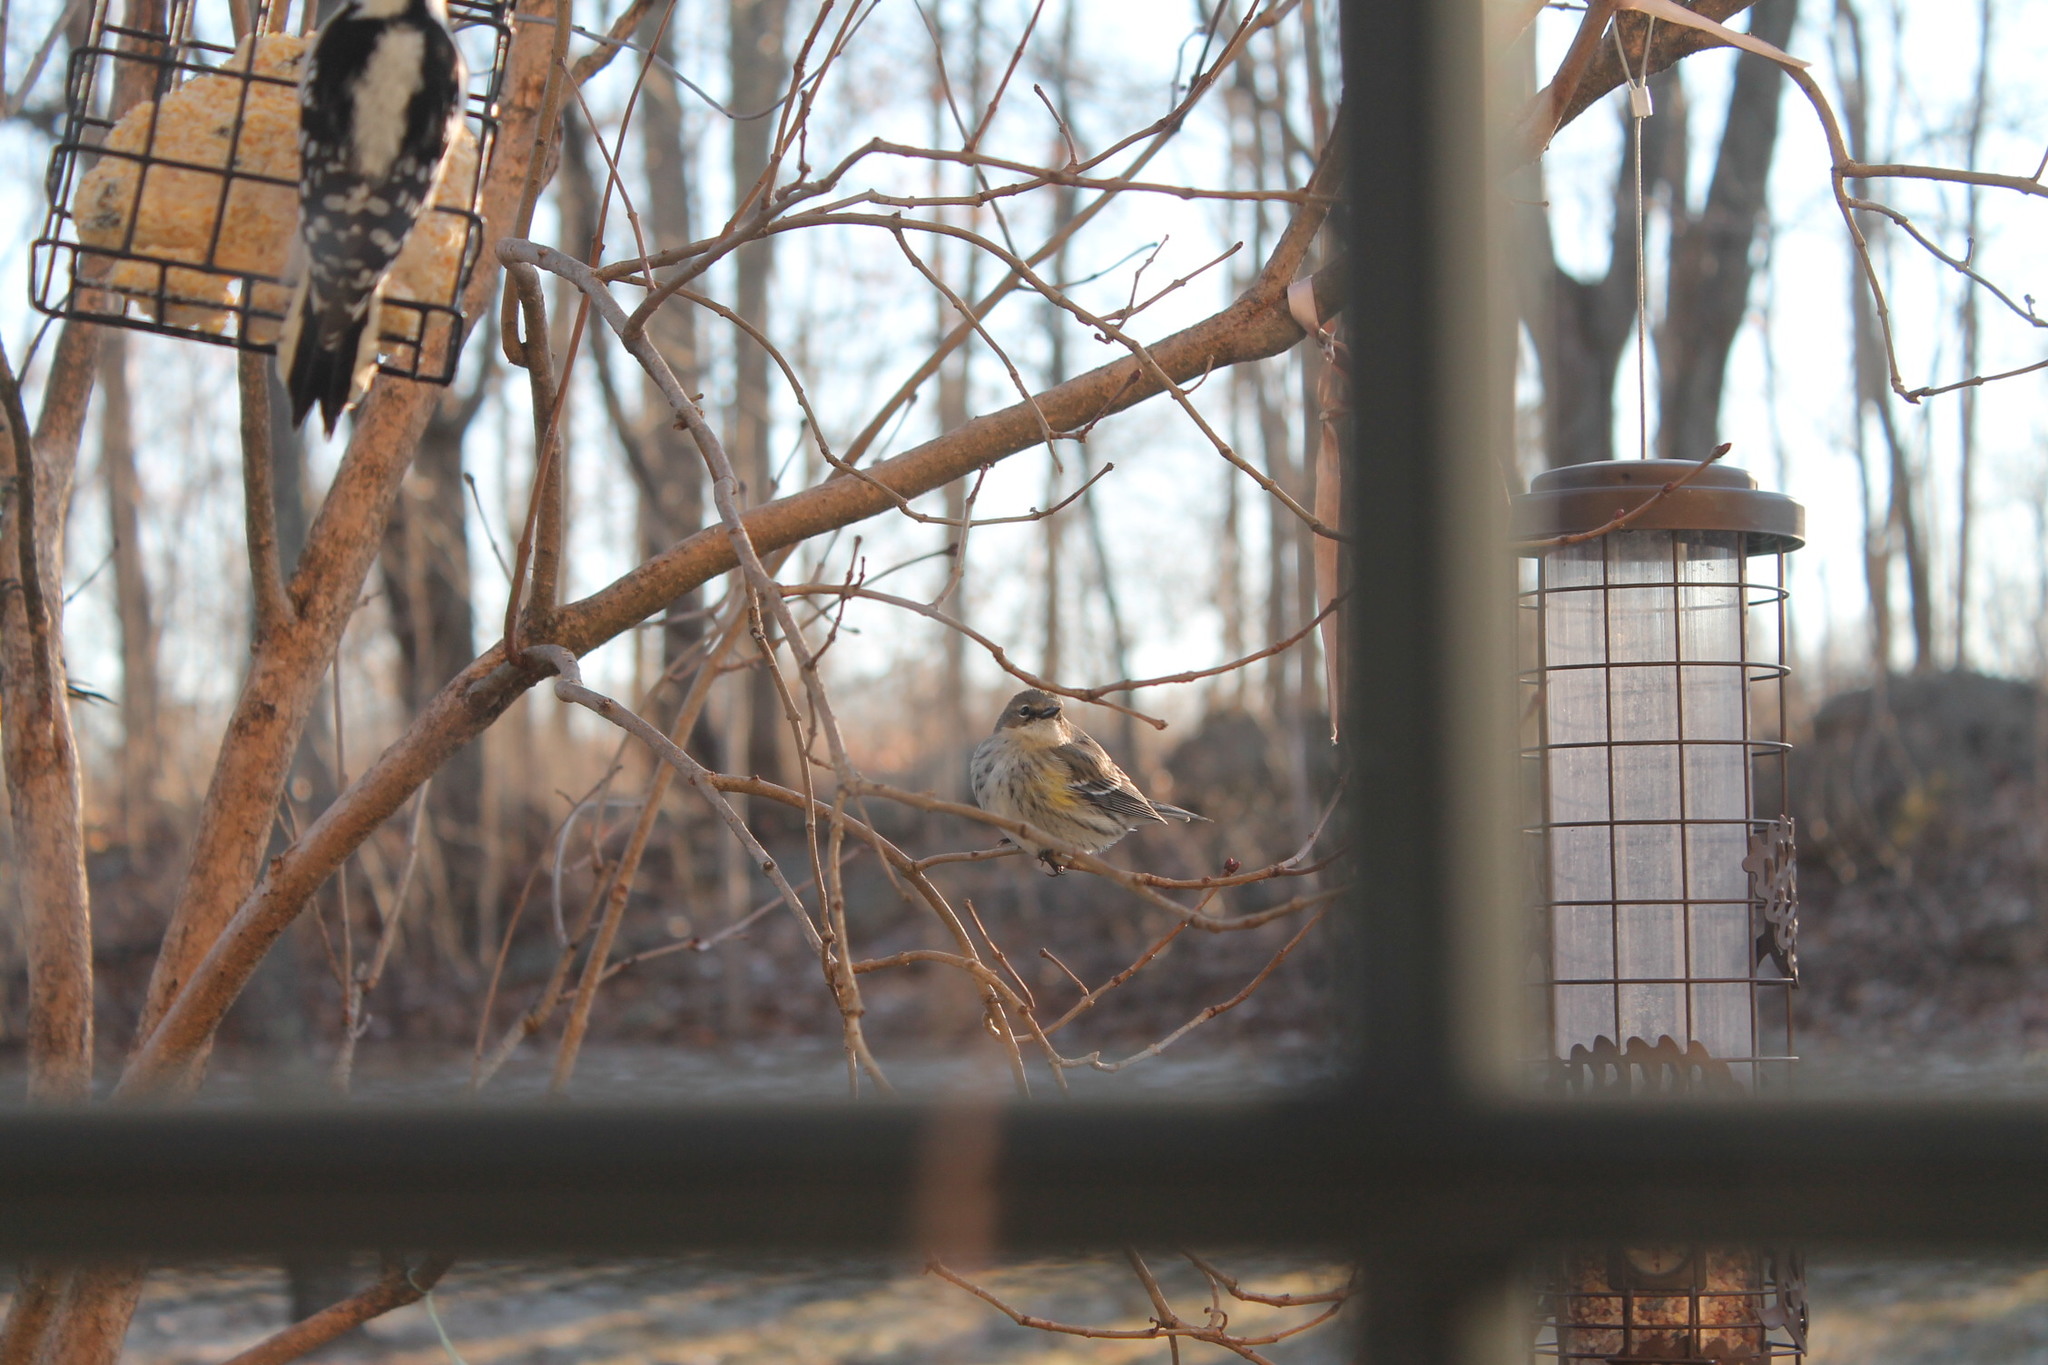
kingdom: Animalia
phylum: Chordata
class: Aves
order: Passeriformes
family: Parulidae
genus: Setophaga
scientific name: Setophaga coronata
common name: Myrtle warbler
